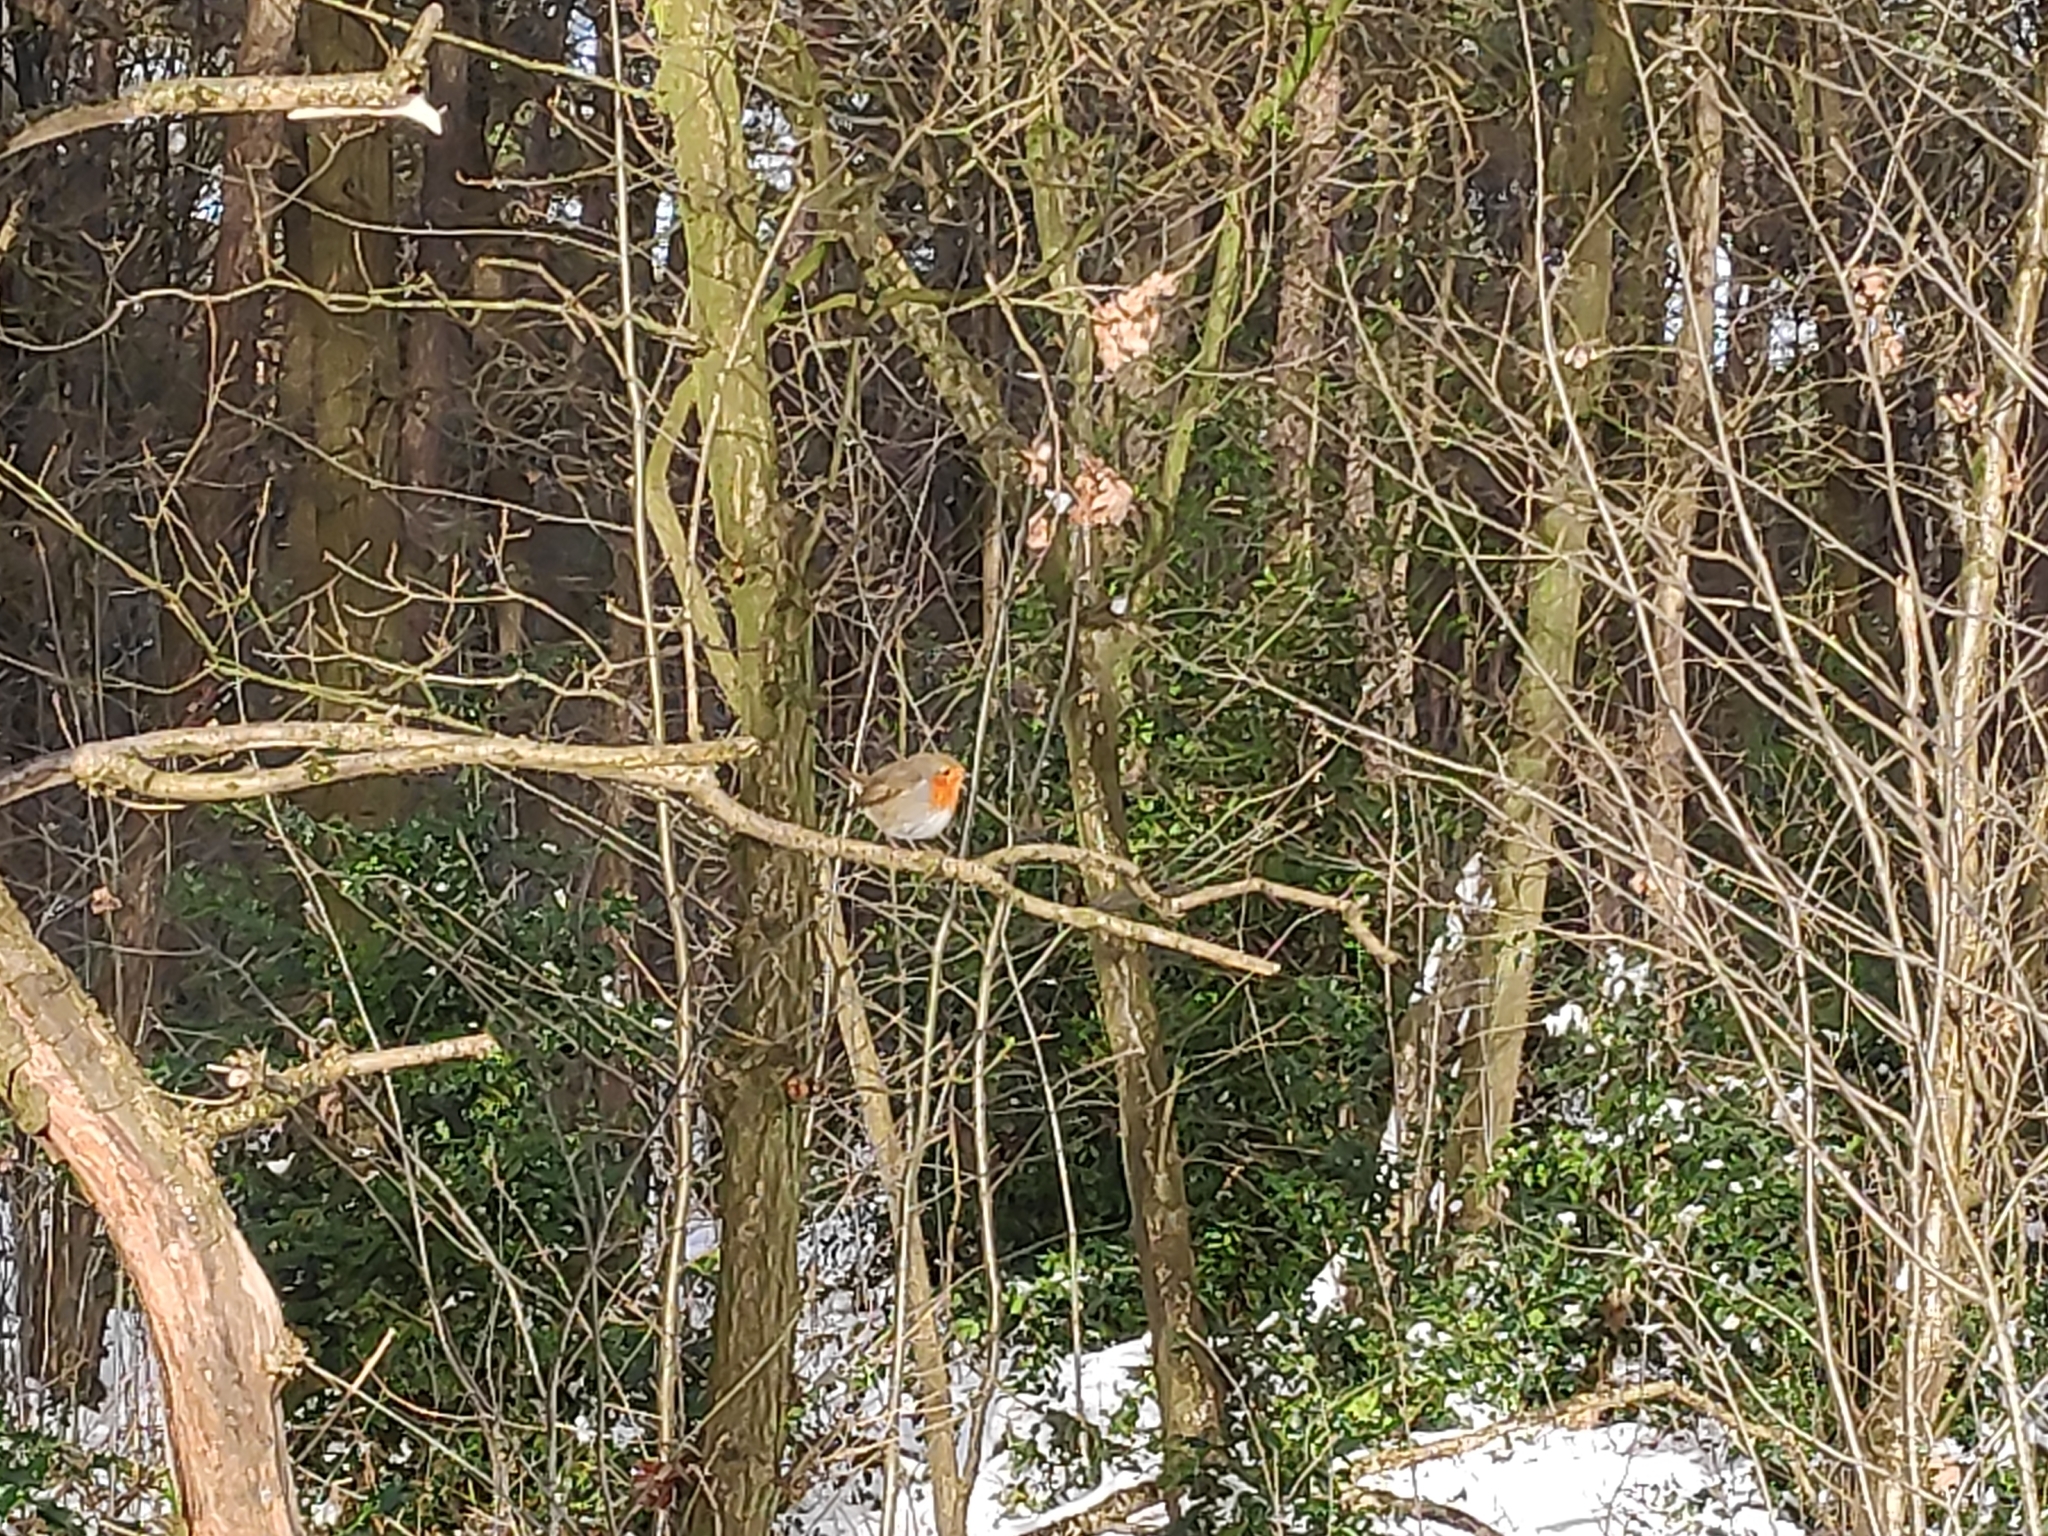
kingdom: Animalia
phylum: Chordata
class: Aves
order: Passeriformes
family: Muscicapidae
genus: Erithacus
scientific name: Erithacus rubecula
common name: European robin
